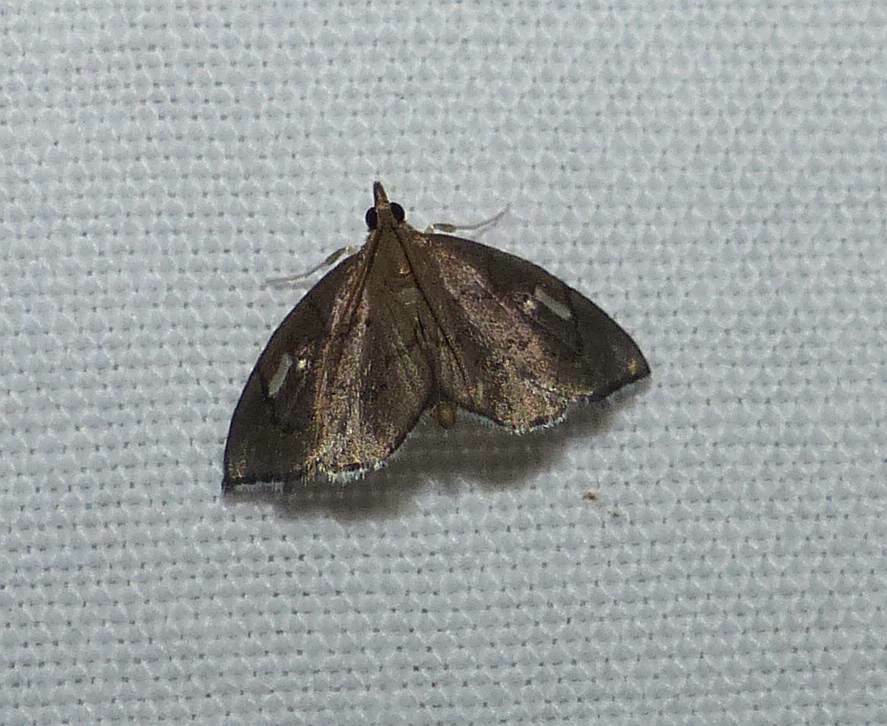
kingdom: Animalia
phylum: Arthropoda
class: Insecta
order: Lepidoptera
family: Crambidae
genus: Perispasta
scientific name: Perispasta caeculalis
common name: Titian peale's moth
